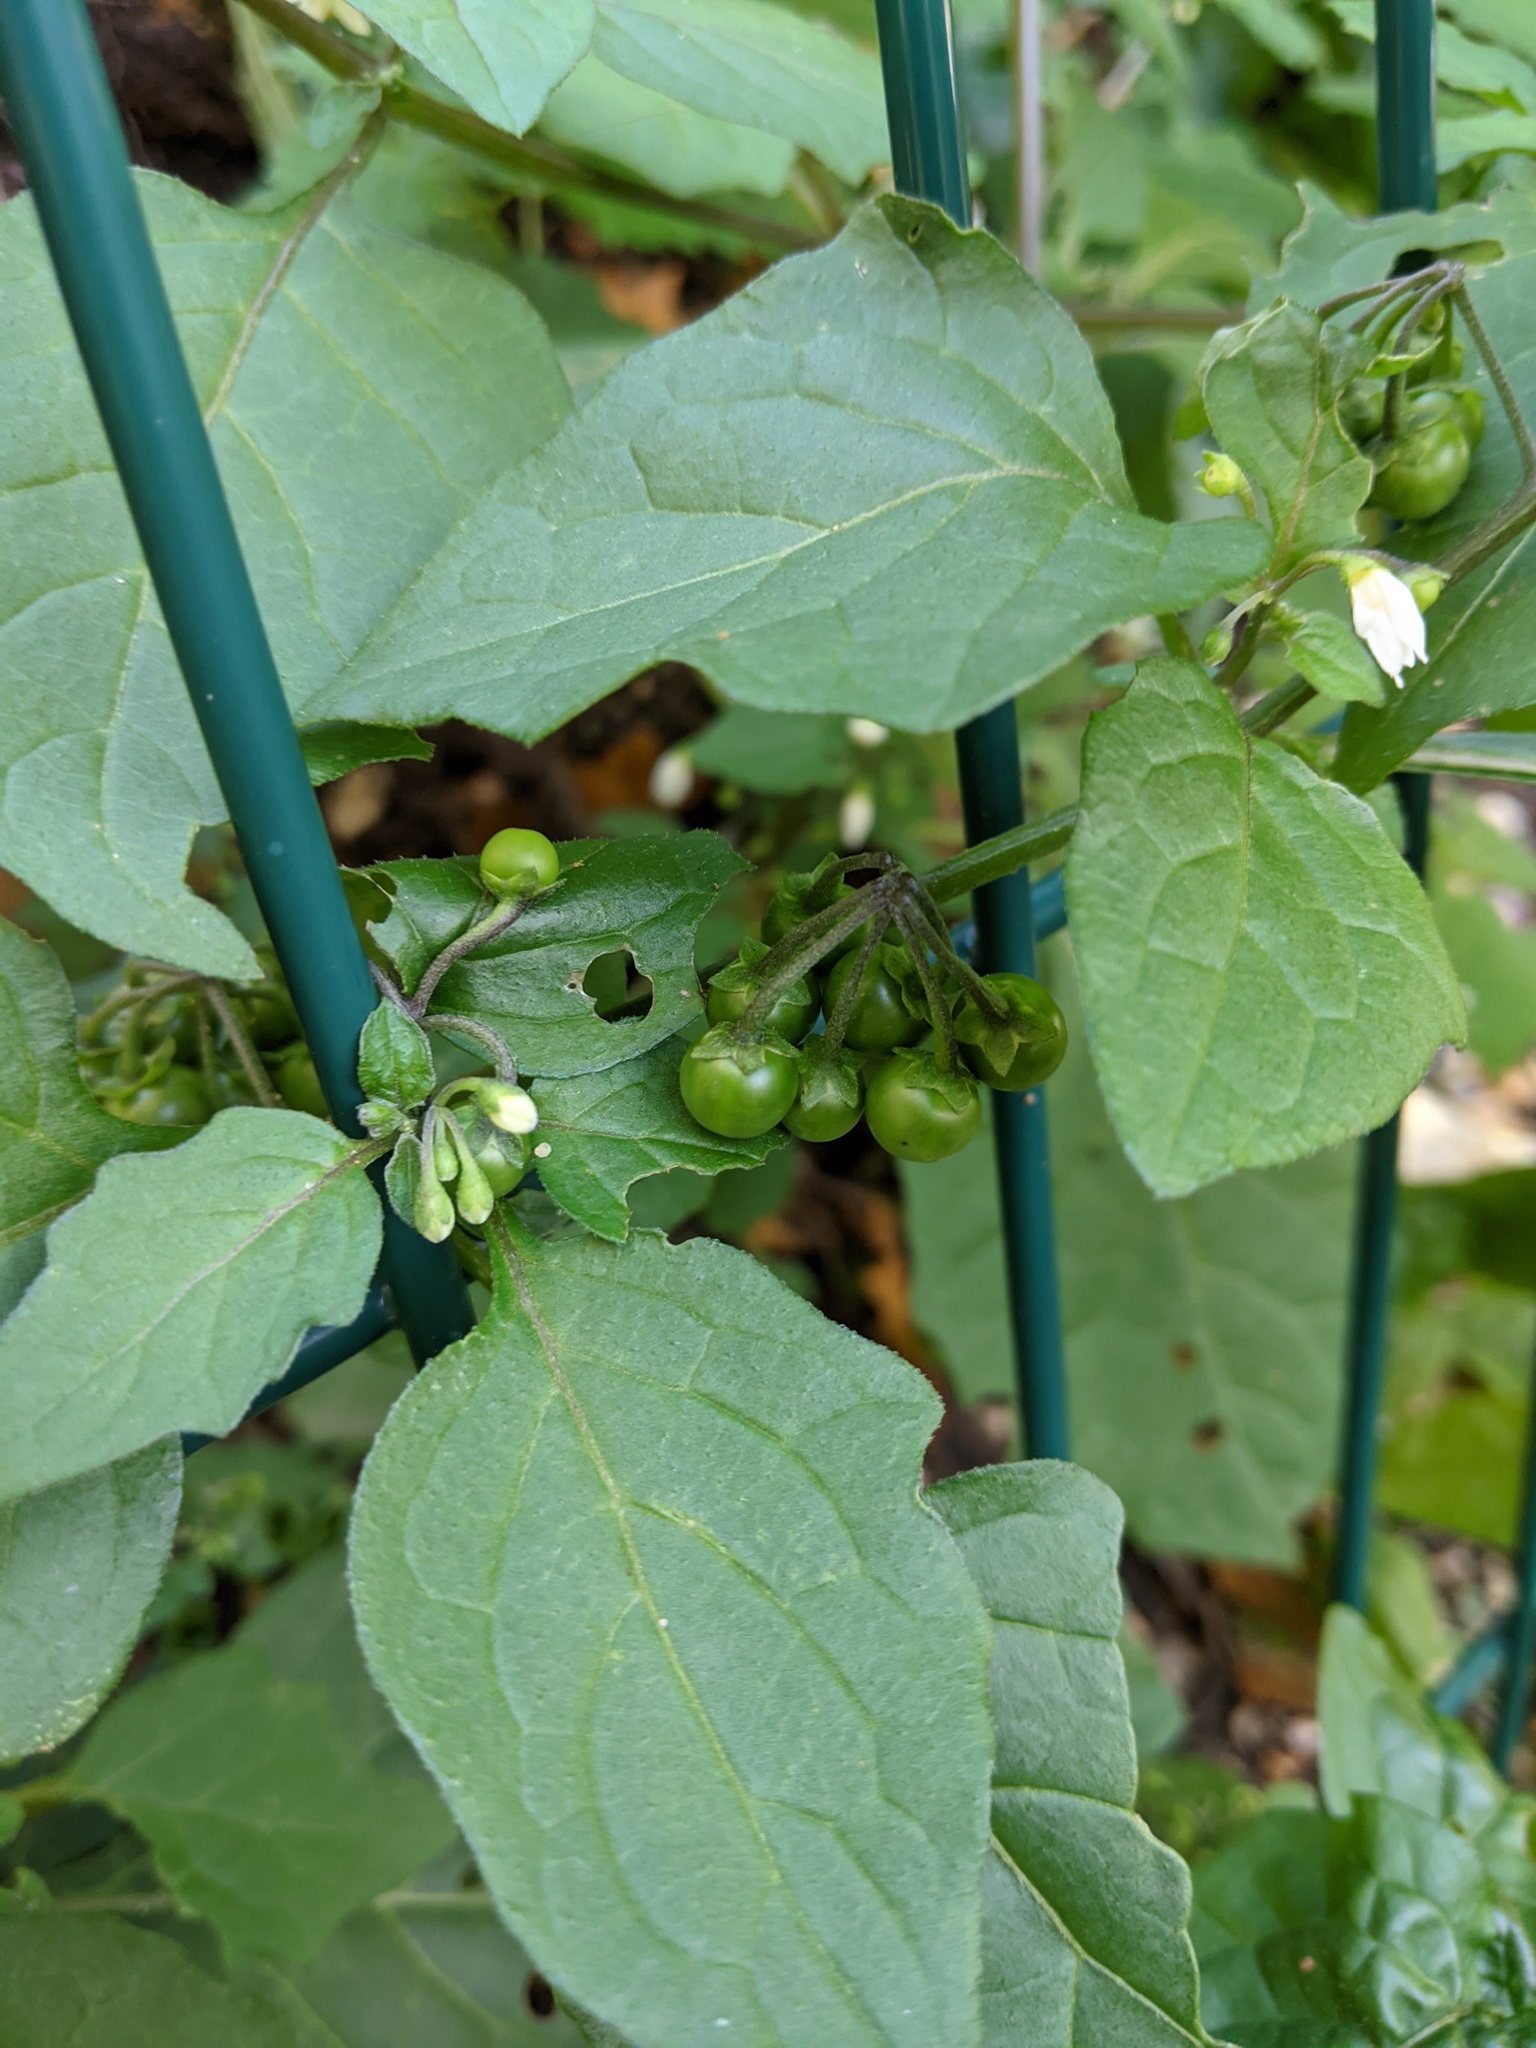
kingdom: Plantae
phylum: Tracheophyta
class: Magnoliopsida
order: Solanales
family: Solanaceae
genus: Solanum
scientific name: Solanum nigrum
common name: Black nightshade
